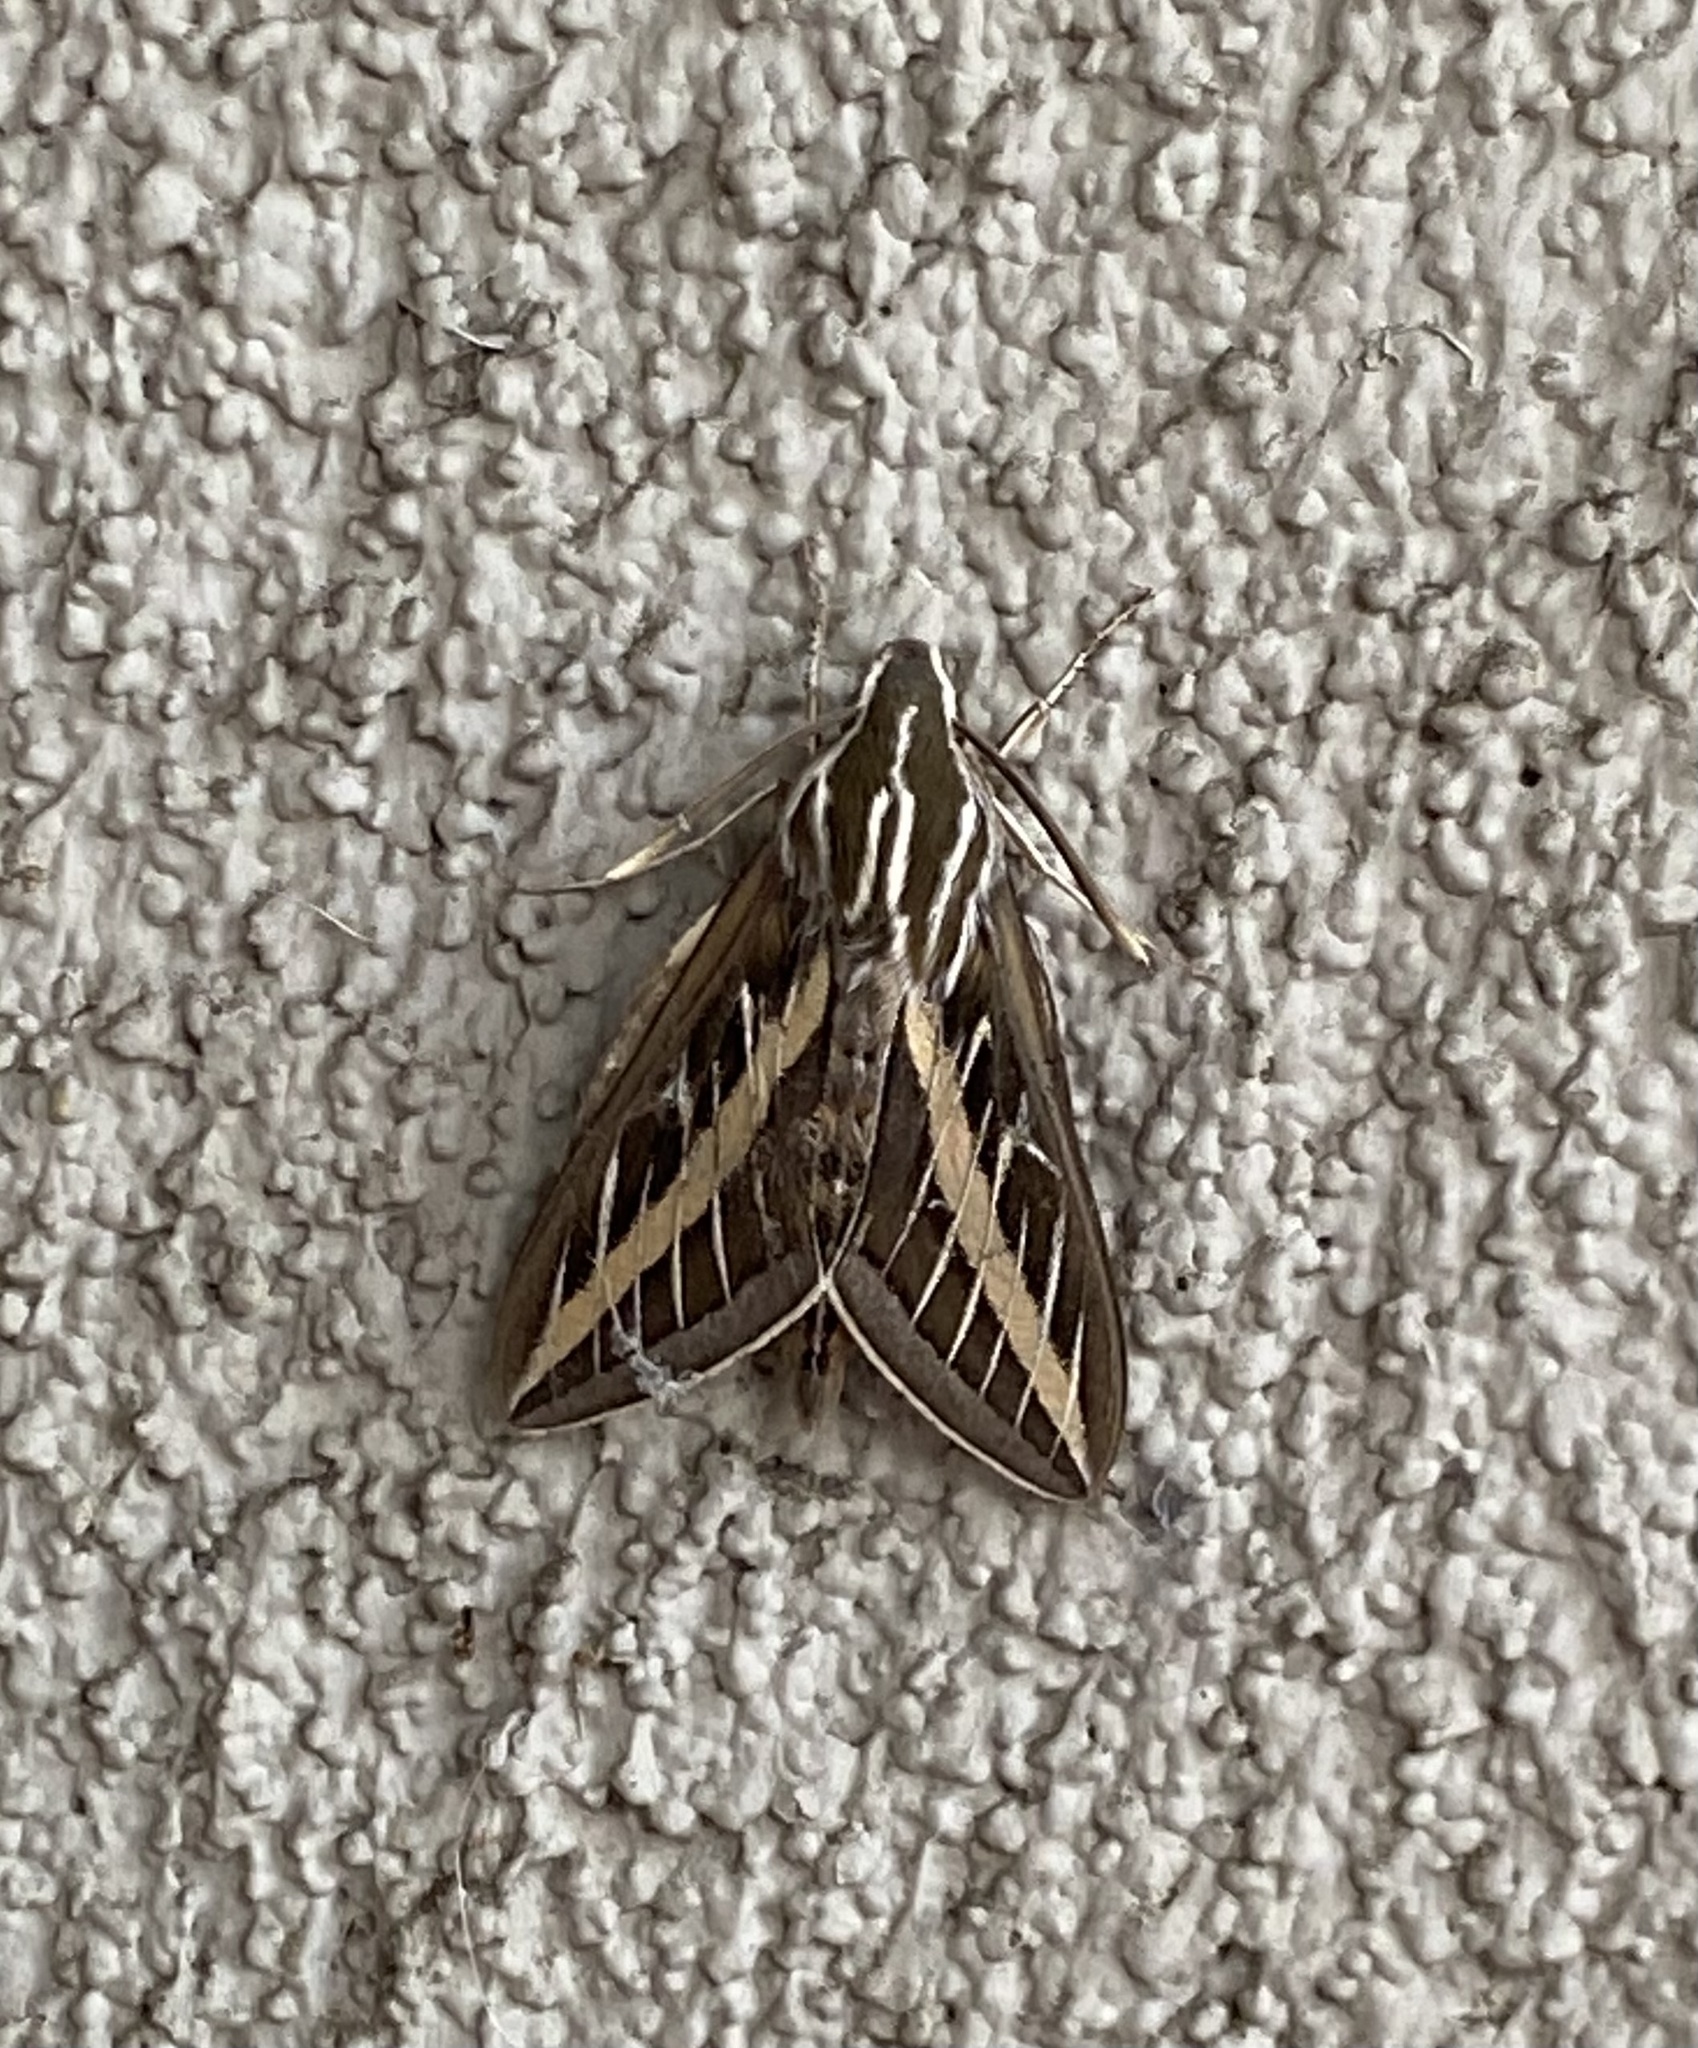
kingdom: Animalia
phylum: Arthropoda
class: Insecta
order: Lepidoptera
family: Sphingidae
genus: Hyles
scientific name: Hyles lineata
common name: White-lined sphinx
